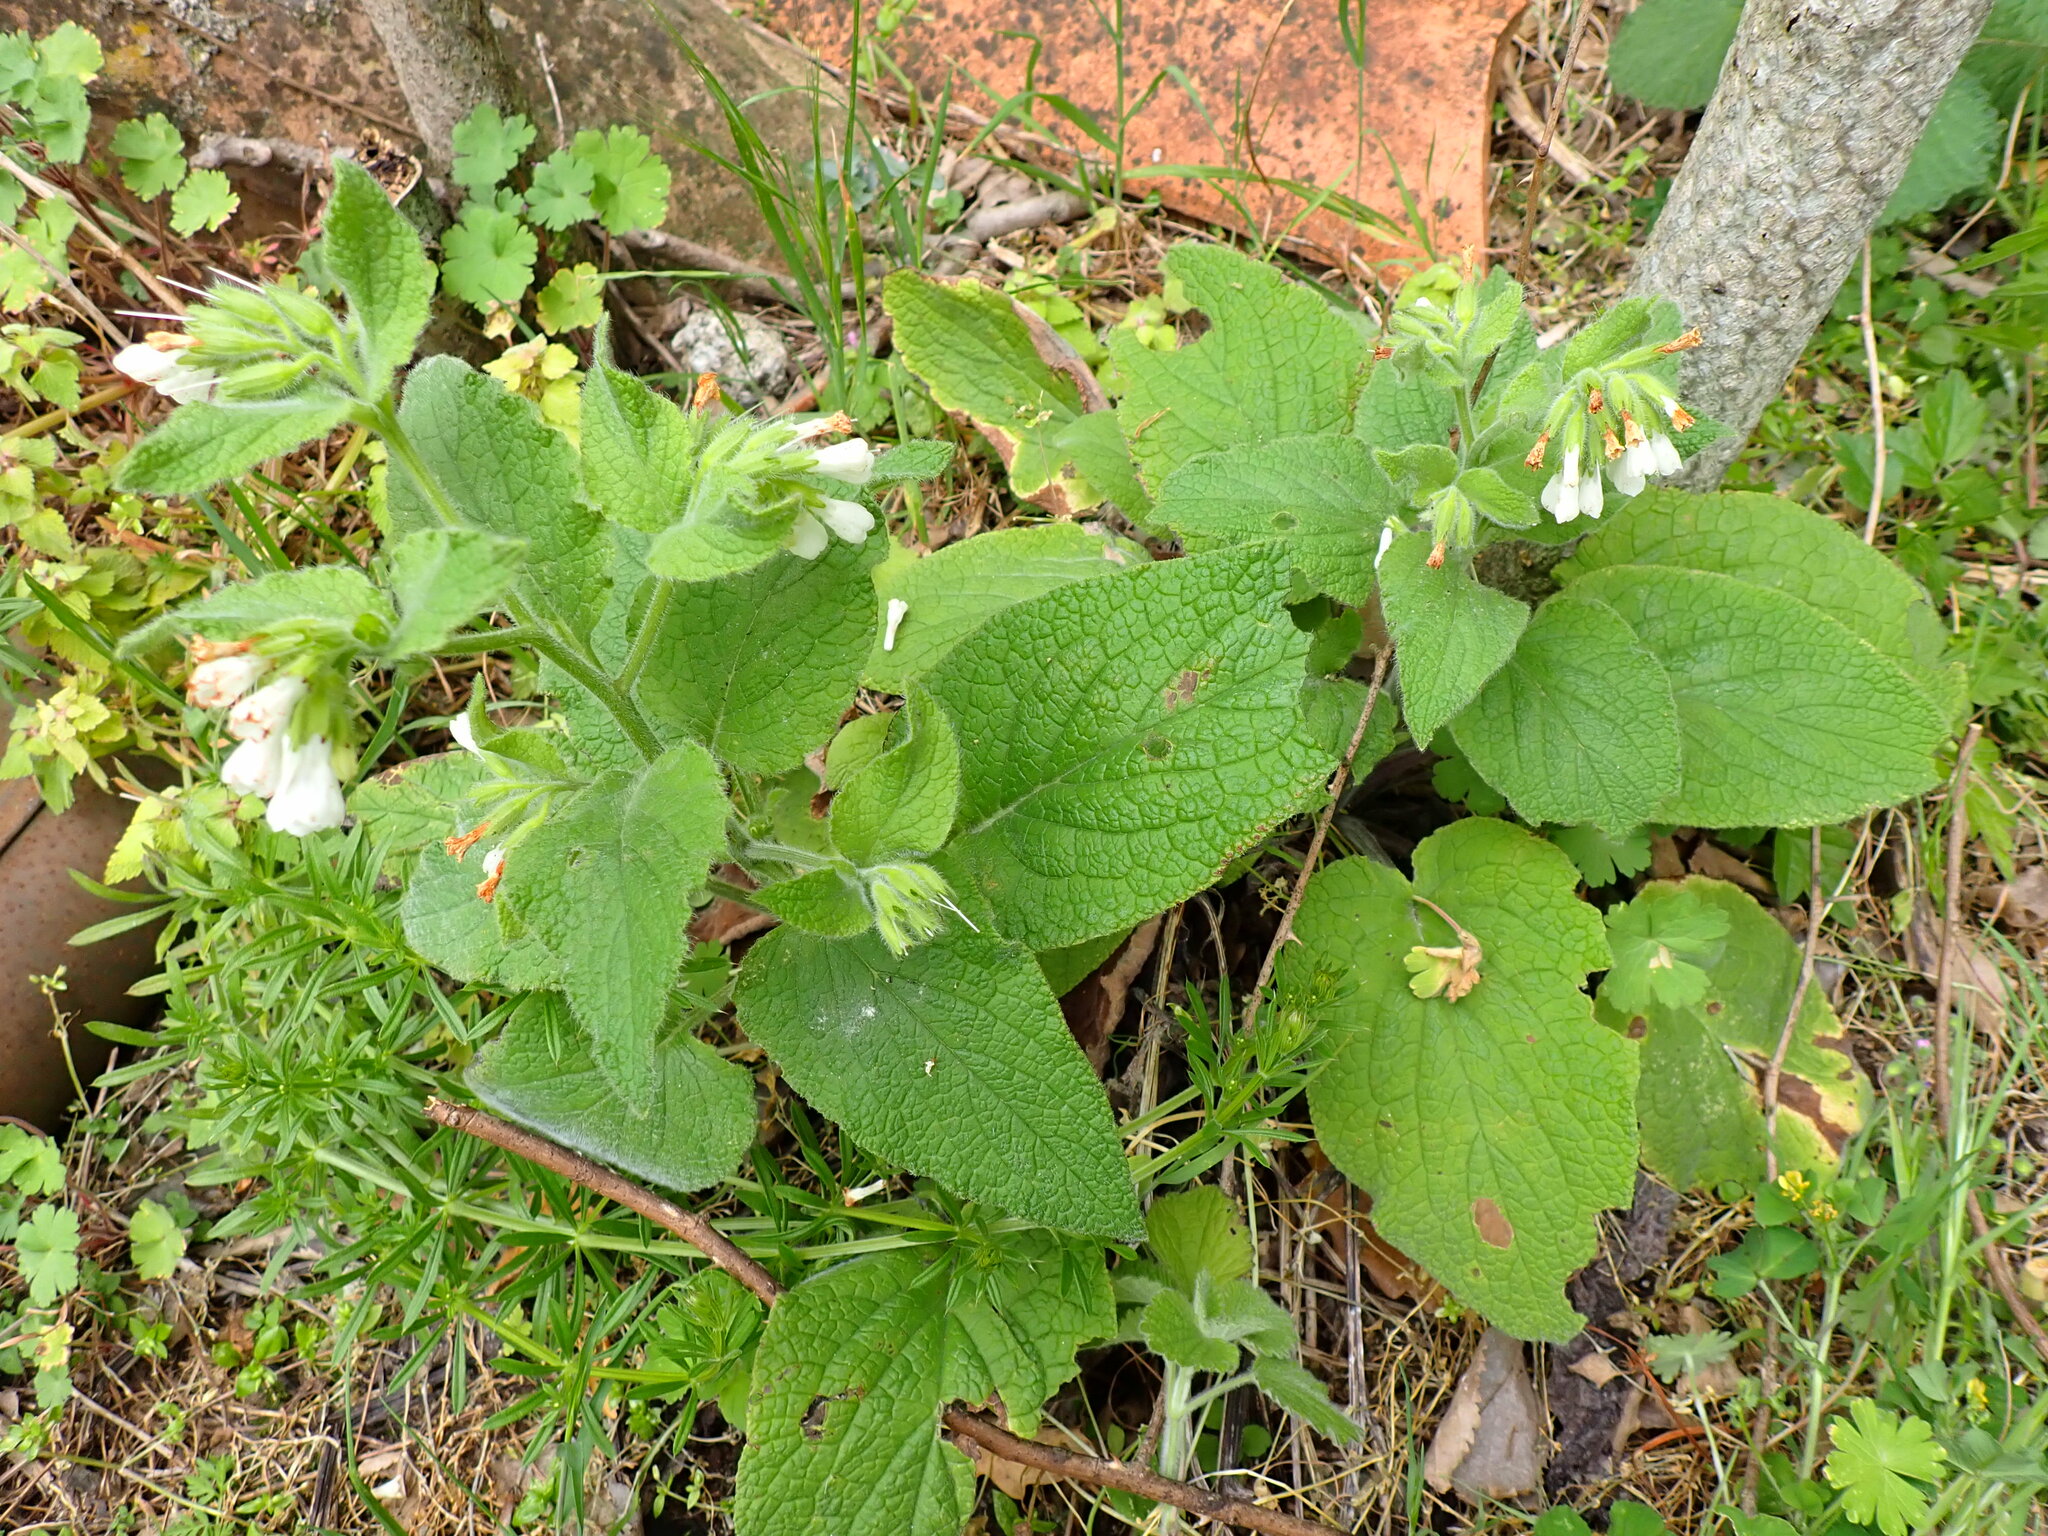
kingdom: Plantae
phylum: Tracheophyta
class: Magnoliopsida
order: Boraginales
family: Boraginaceae
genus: Symphytum
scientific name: Symphytum orientale
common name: White comfrey
